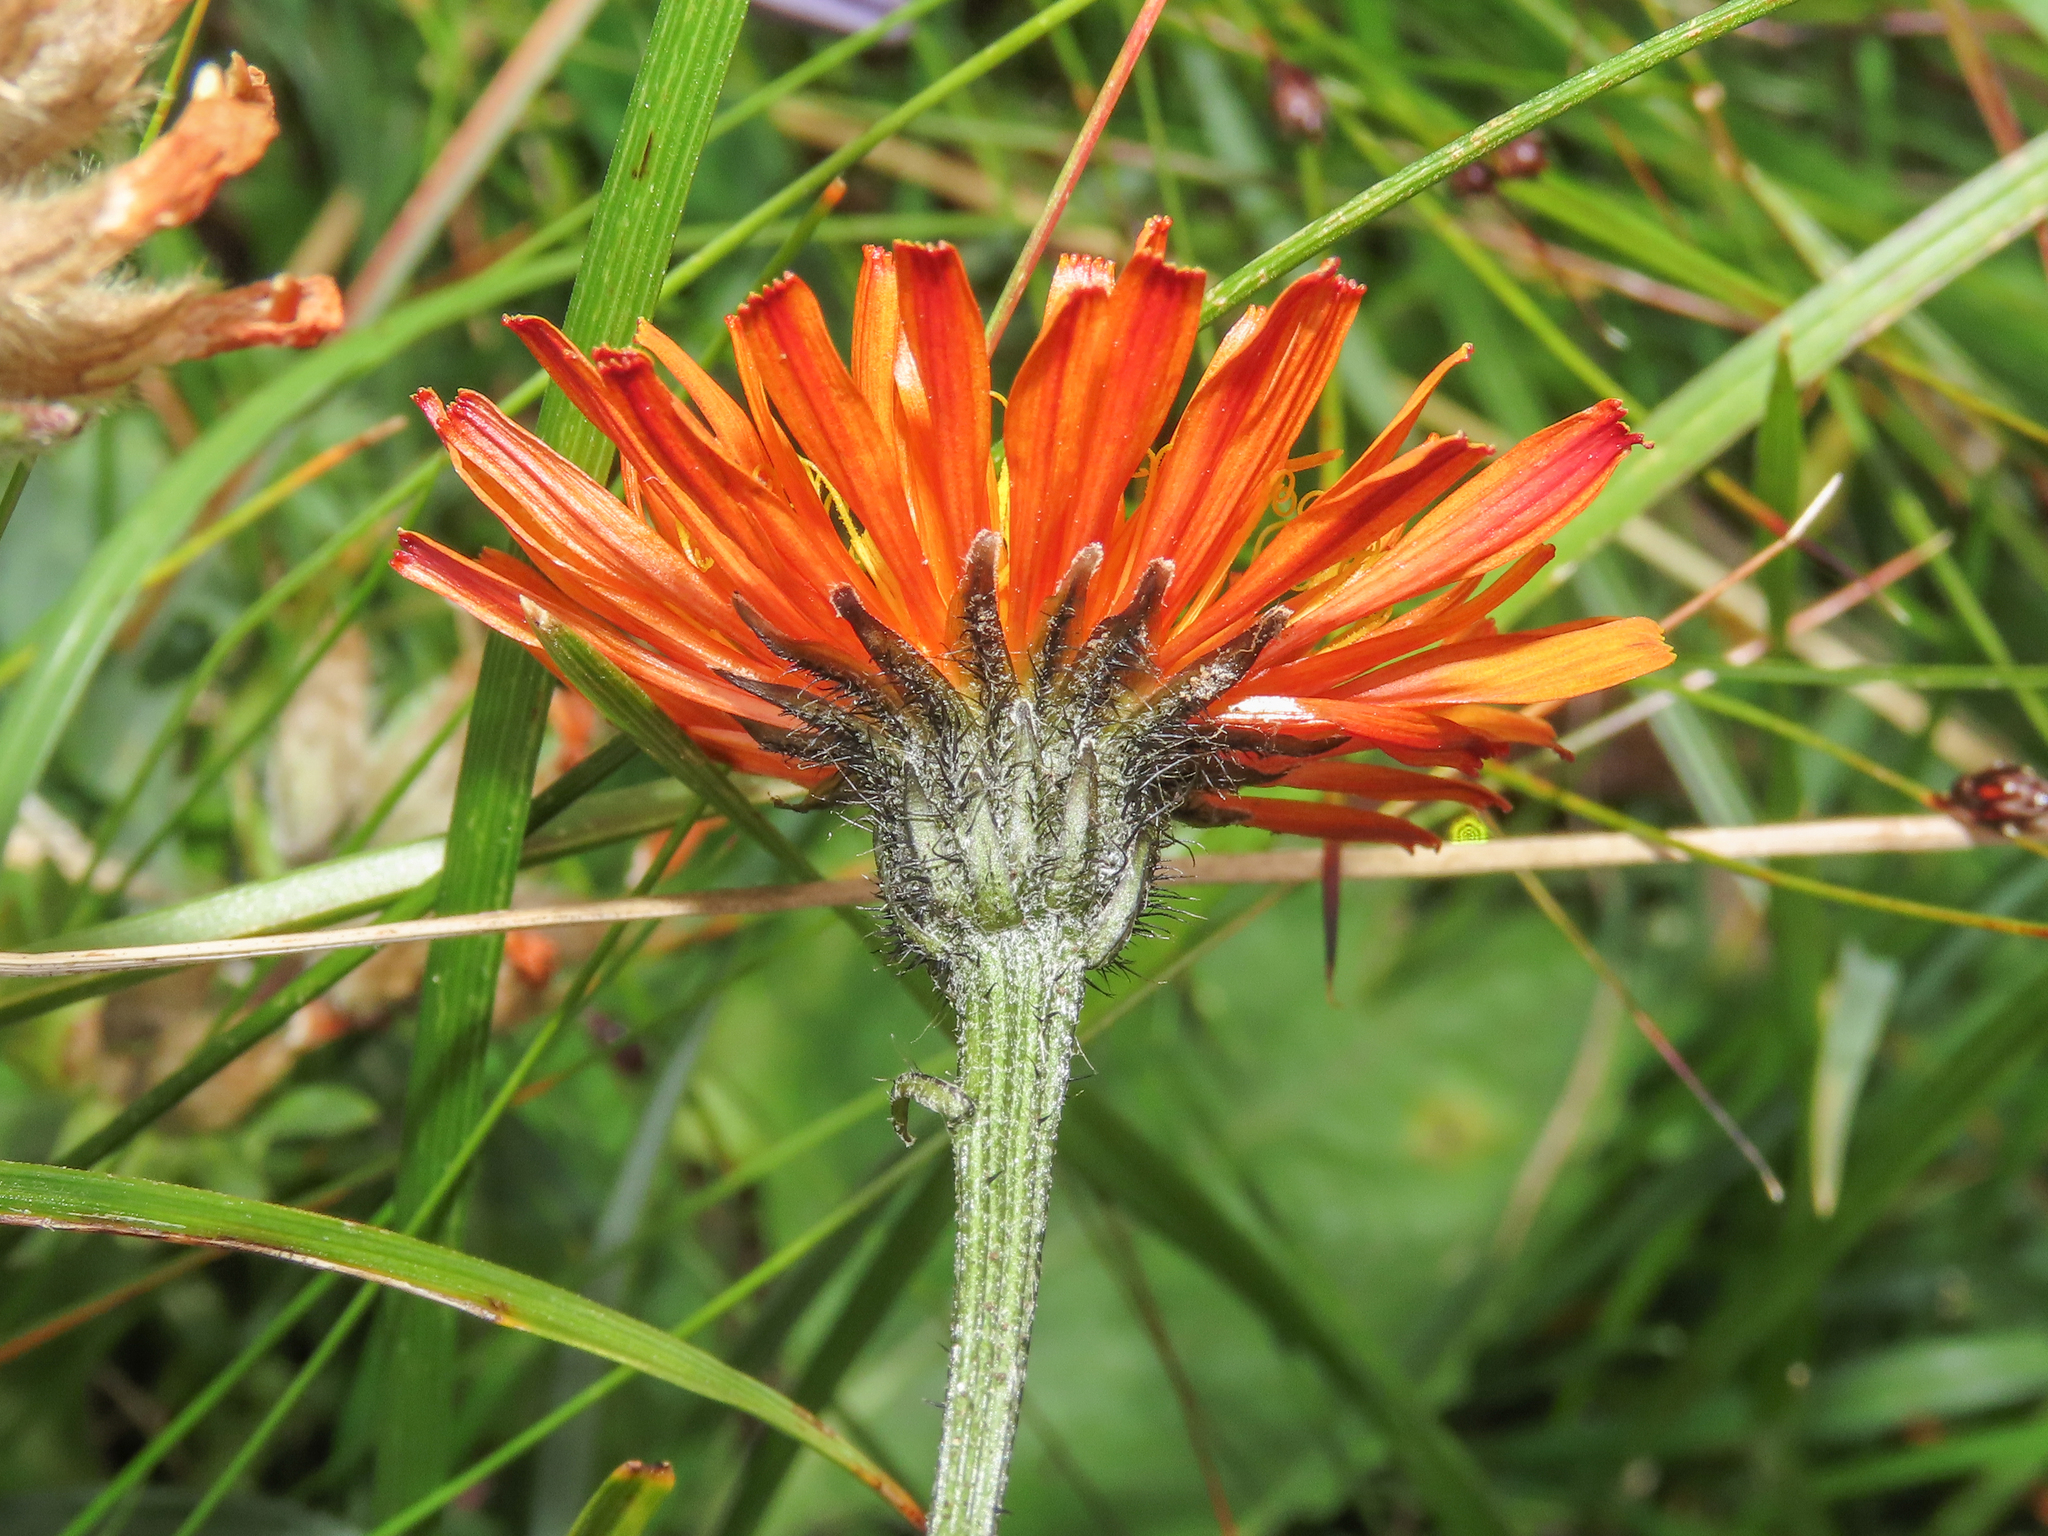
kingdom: Plantae
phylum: Tracheophyta
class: Magnoliopsida
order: Asterales
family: Asteraceae
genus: Crepis
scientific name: Crepis aurea
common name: Golden hawk's-beard
